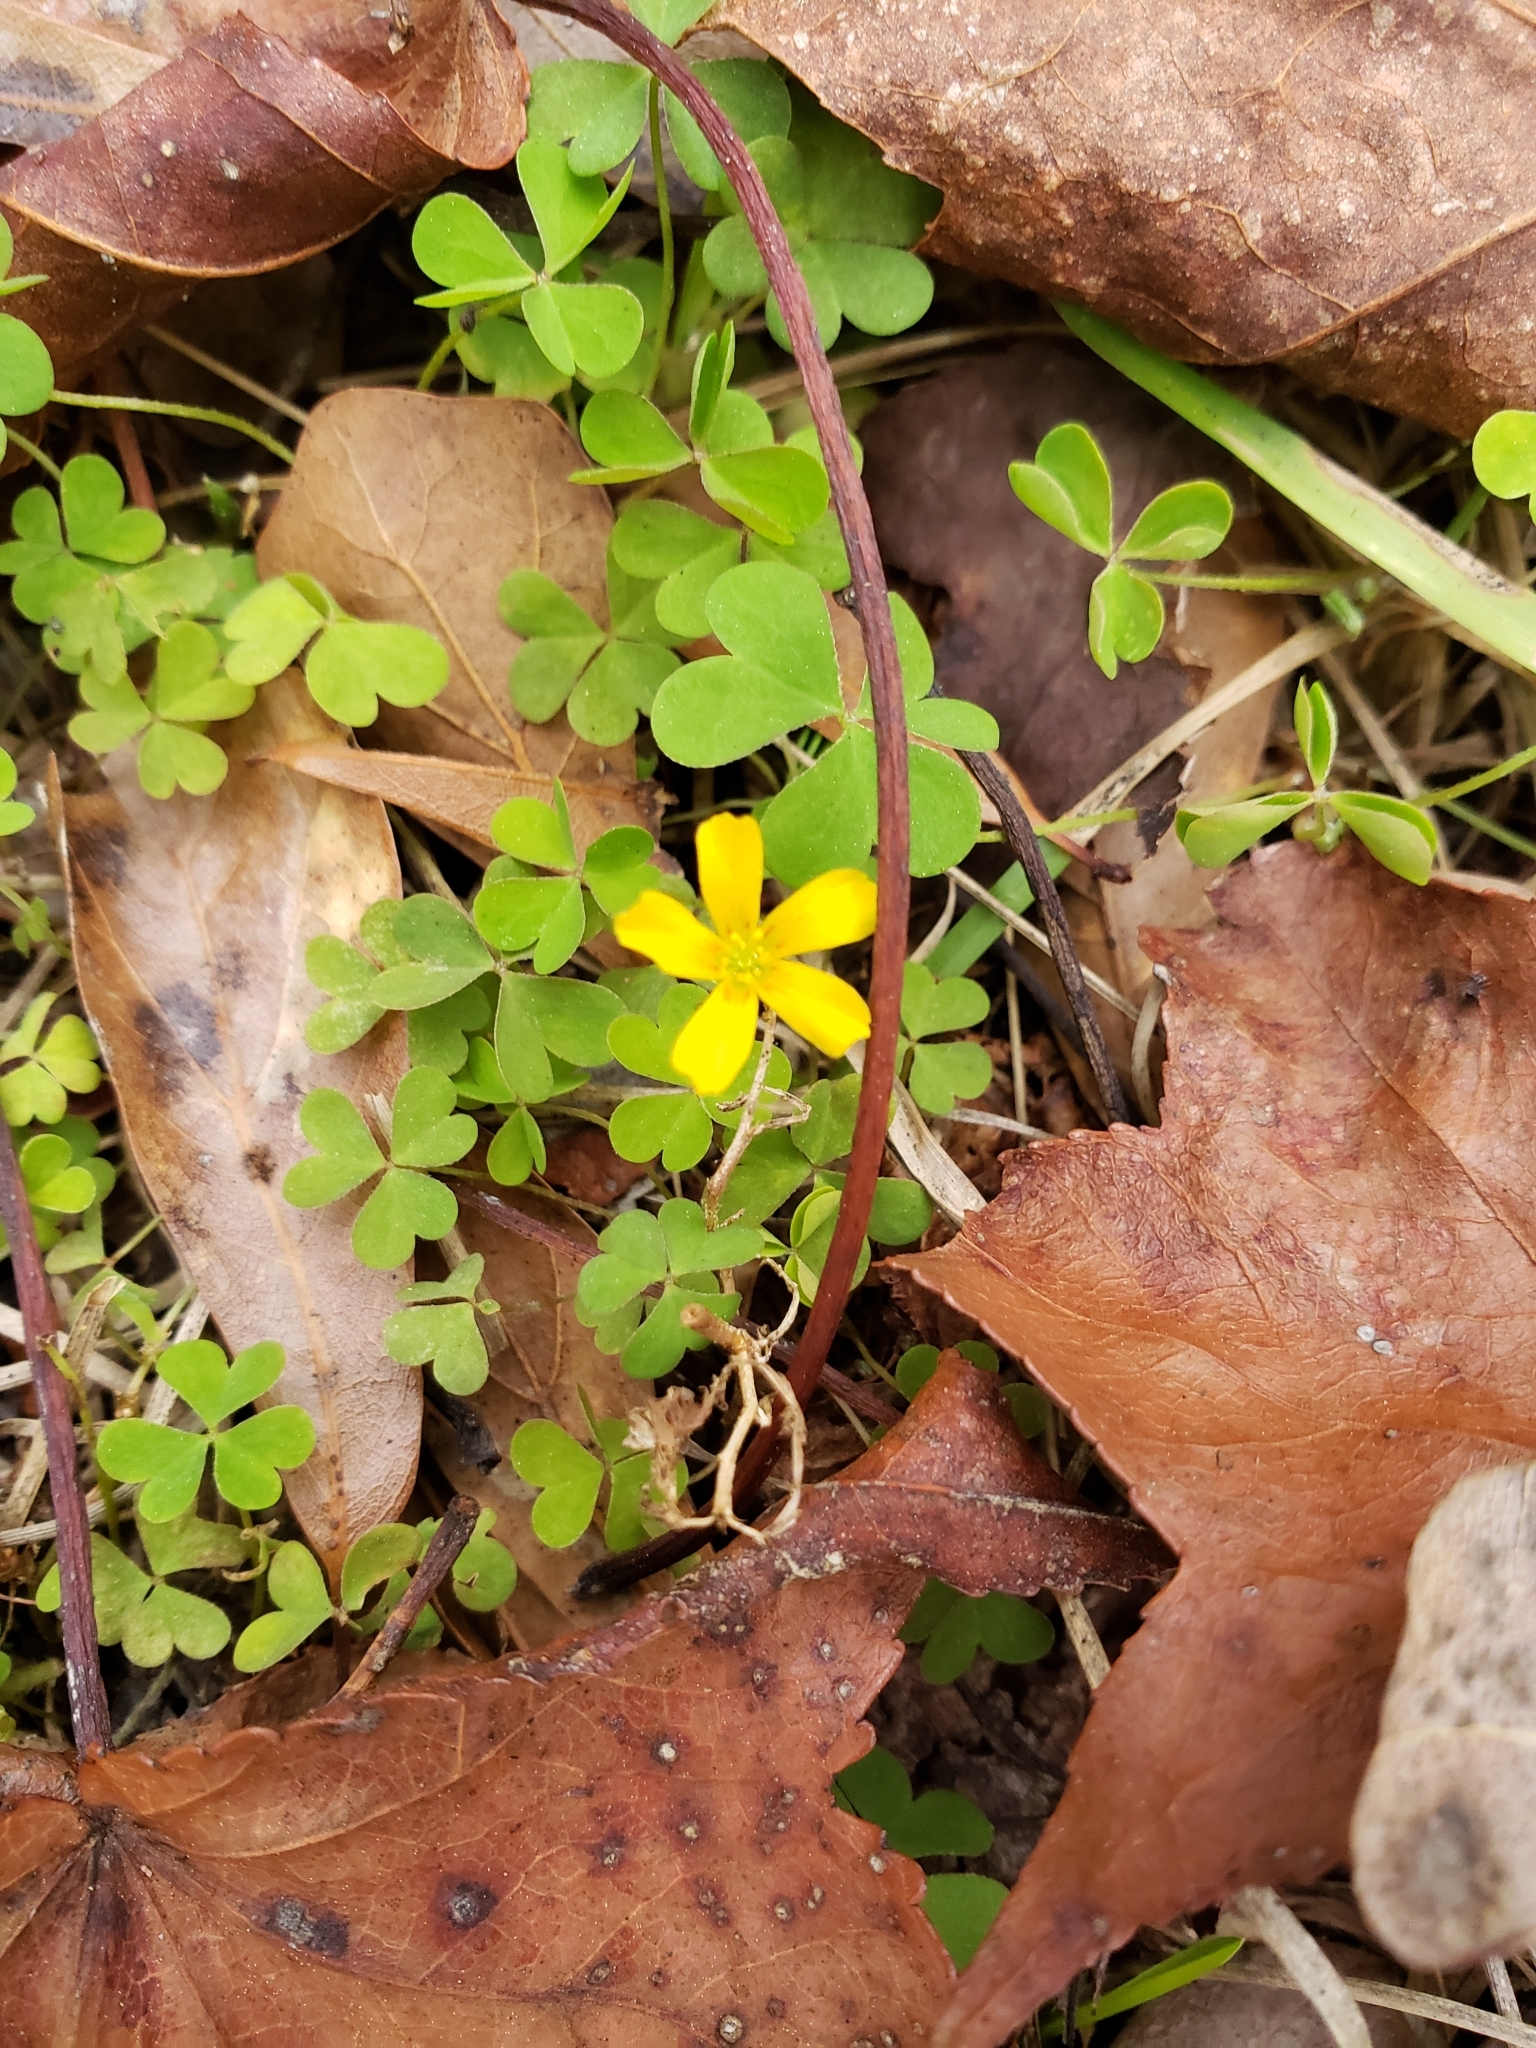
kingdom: Plantae
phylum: Tracheophyta
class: Magnoliopsida
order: Oxalidales
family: Oxalidaceae
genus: Oxalis
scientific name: Oxalis corniculata
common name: Procumbent yellow-sorrel
